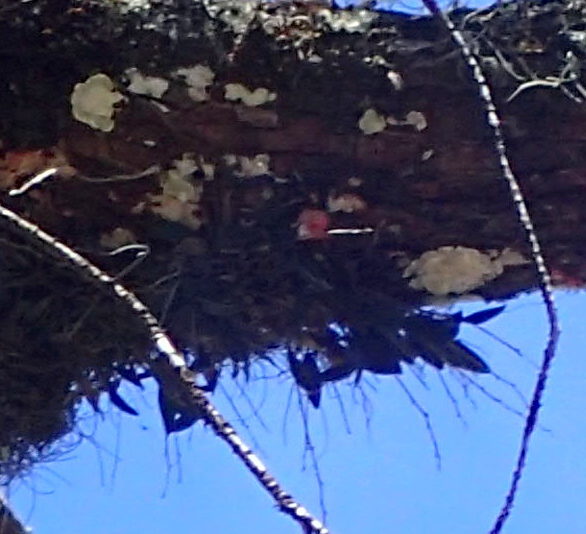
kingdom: Plantae
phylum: Tracheophyta
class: Liliopsida
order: Asparagales
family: Orchidaceae
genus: Epidendrum
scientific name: Epidendrum conopseum
